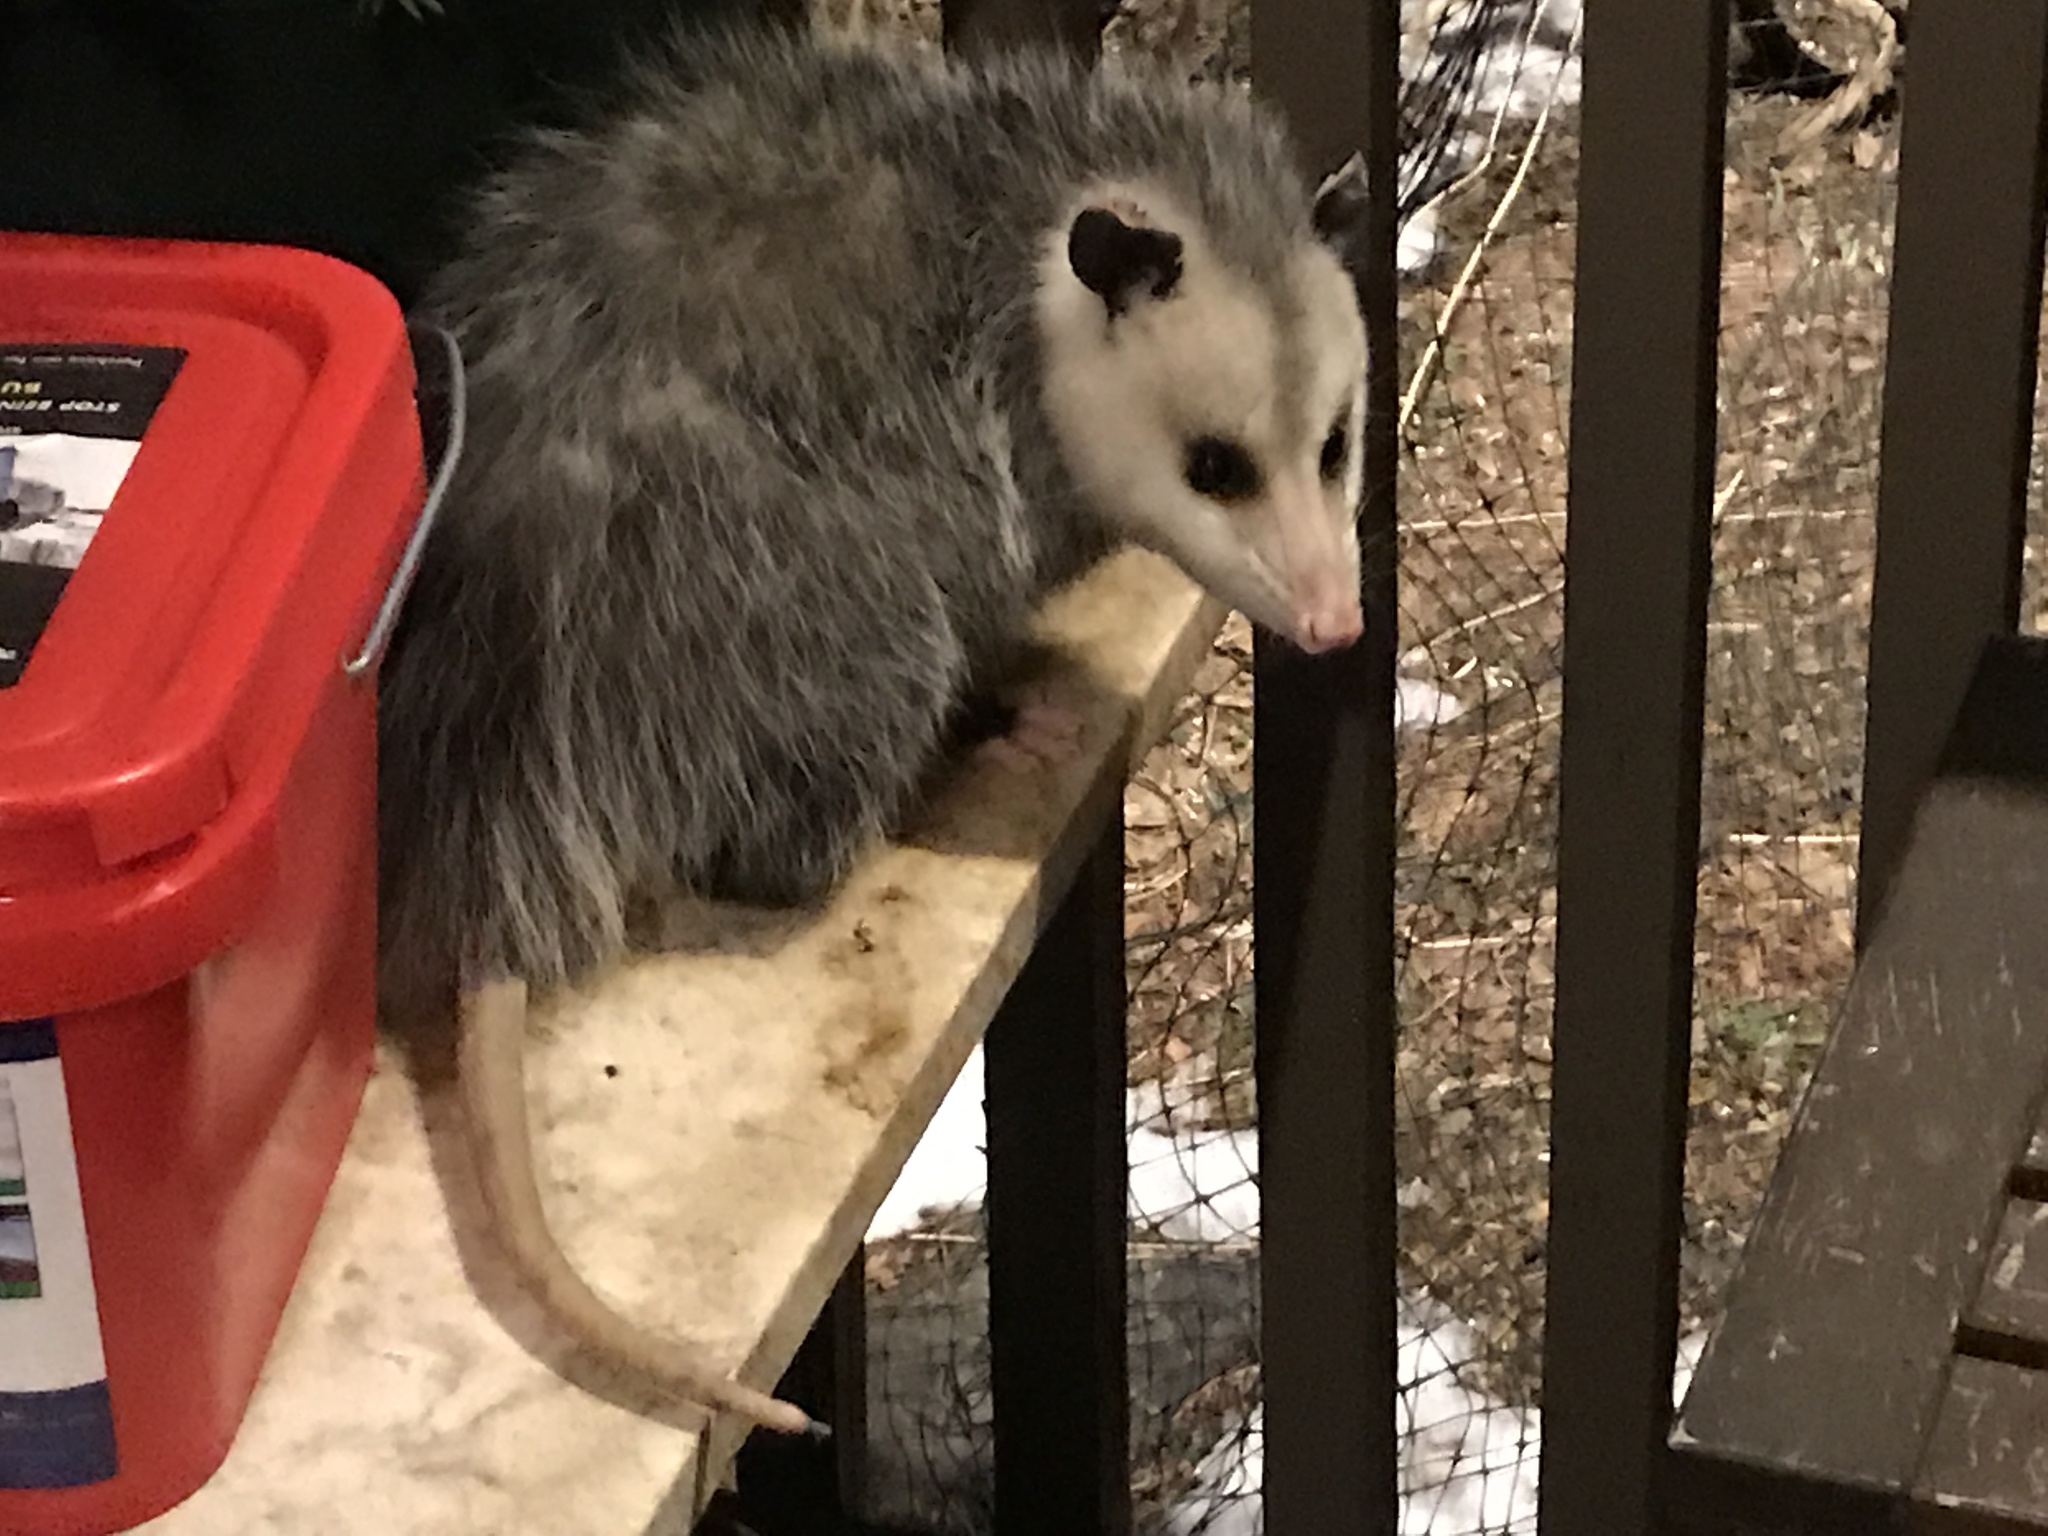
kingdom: Animalia
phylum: Chordata
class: Mammalia
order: Didelphimorphia
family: Didelphidae
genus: Didelphis
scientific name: Didelphis virginiana
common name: Virginia opossum
